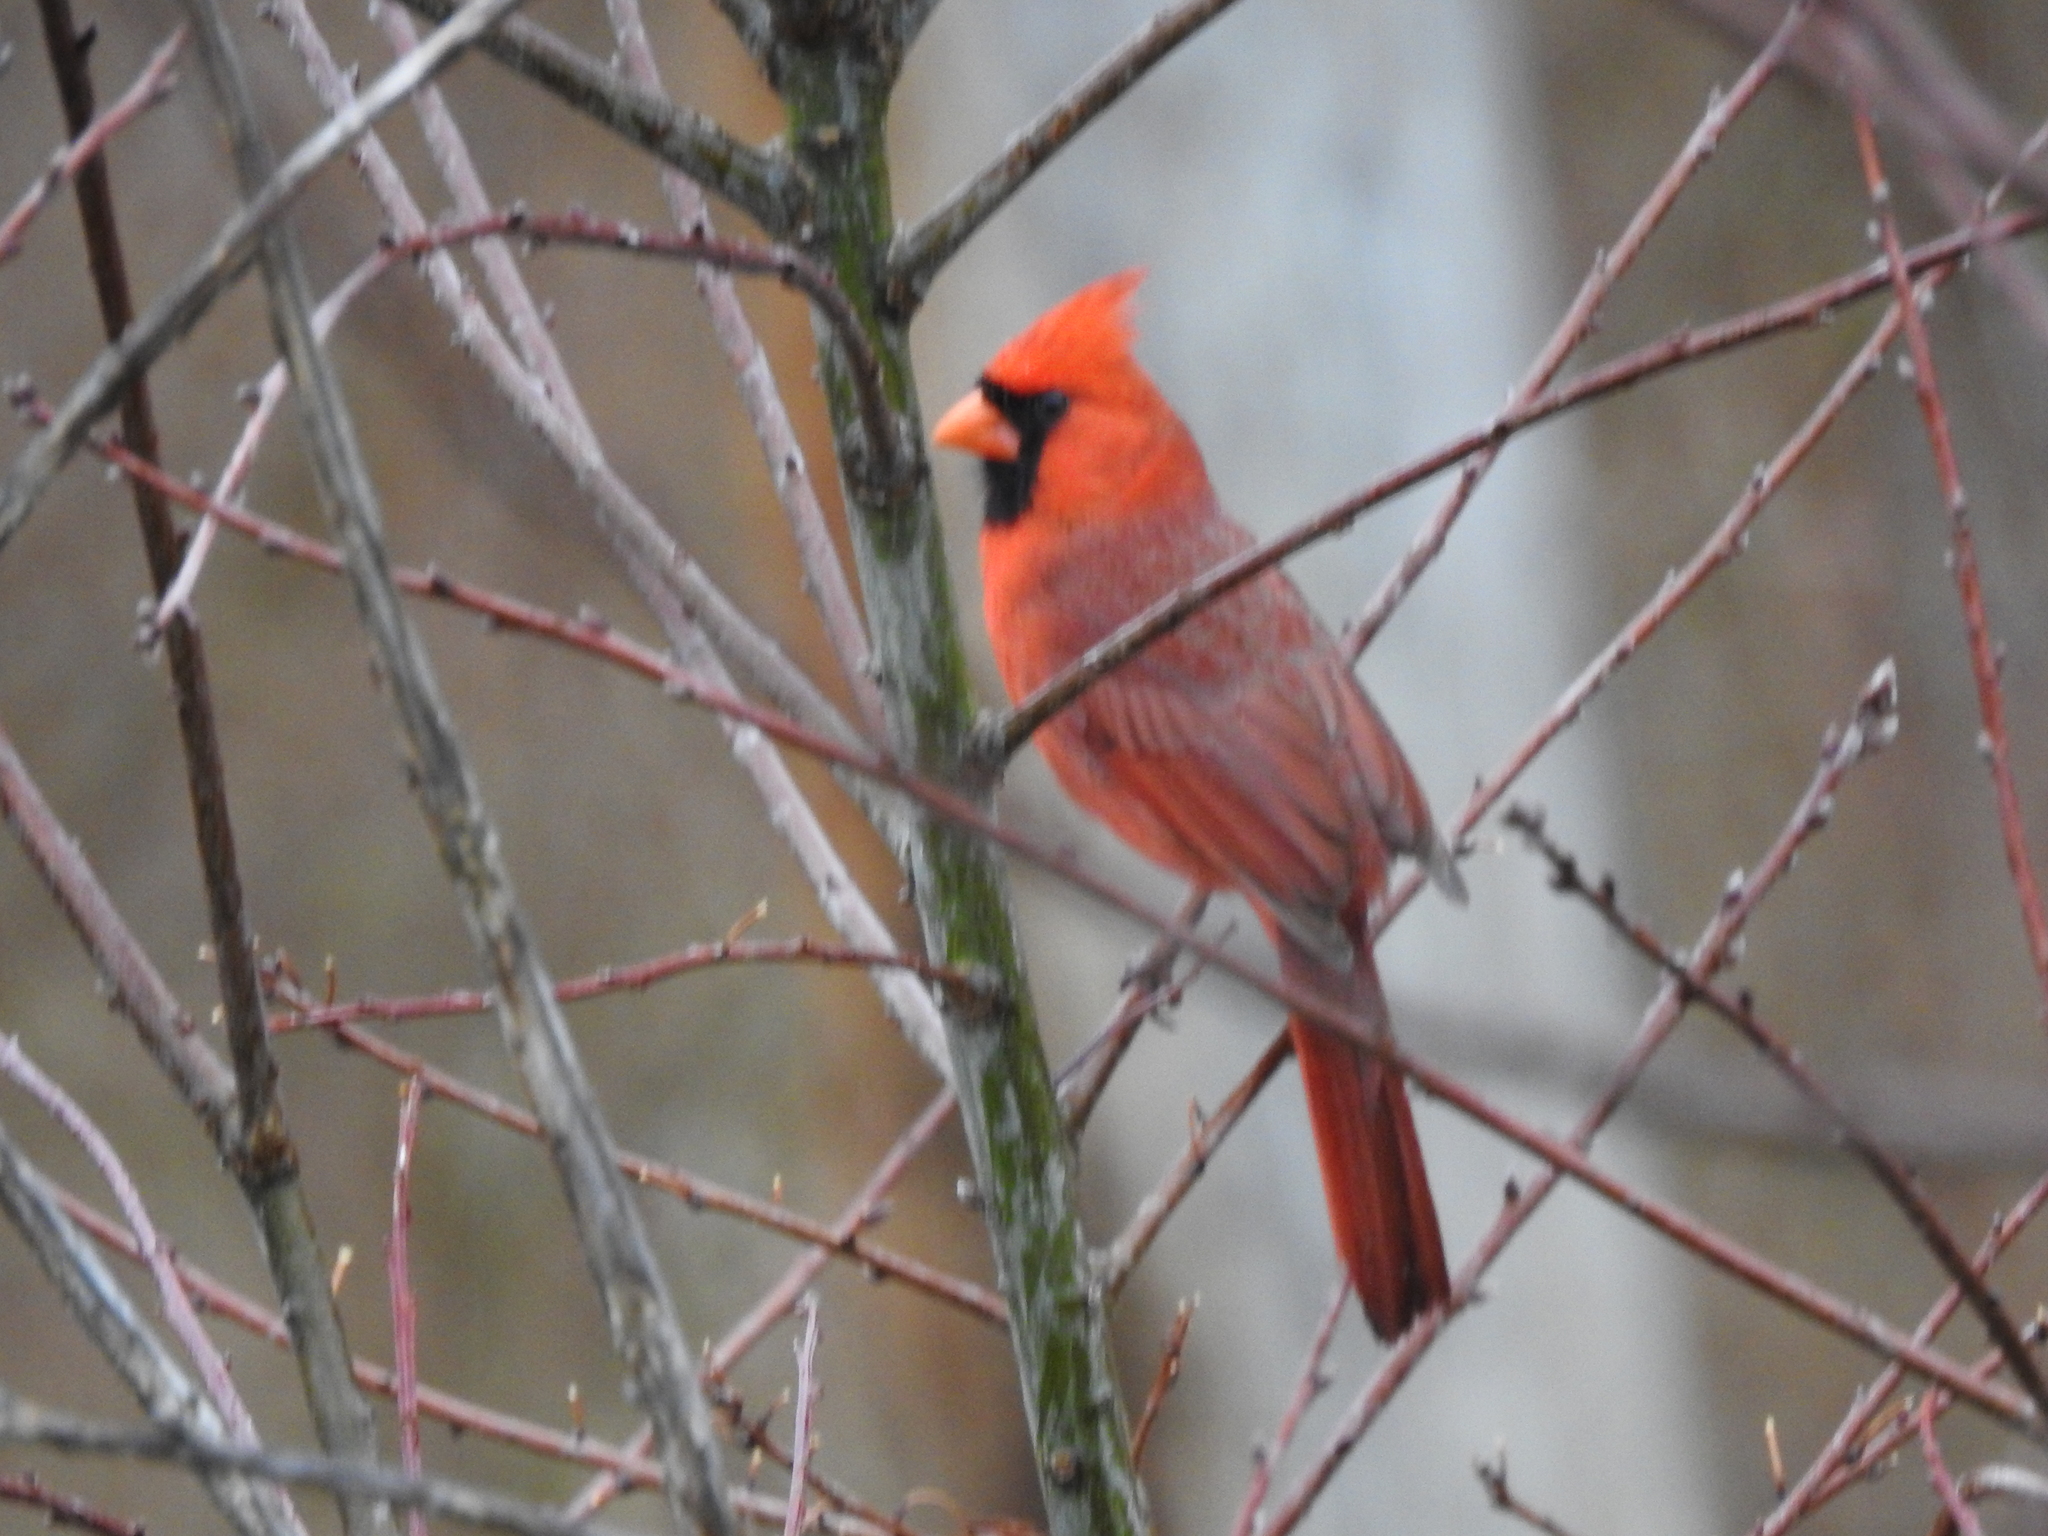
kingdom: Animalia
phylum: Chordata
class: Aves
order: Passeriformes
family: Cardinalidae
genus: Cardinalis
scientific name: Cardinalis cardinalis
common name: Northern cardinal
